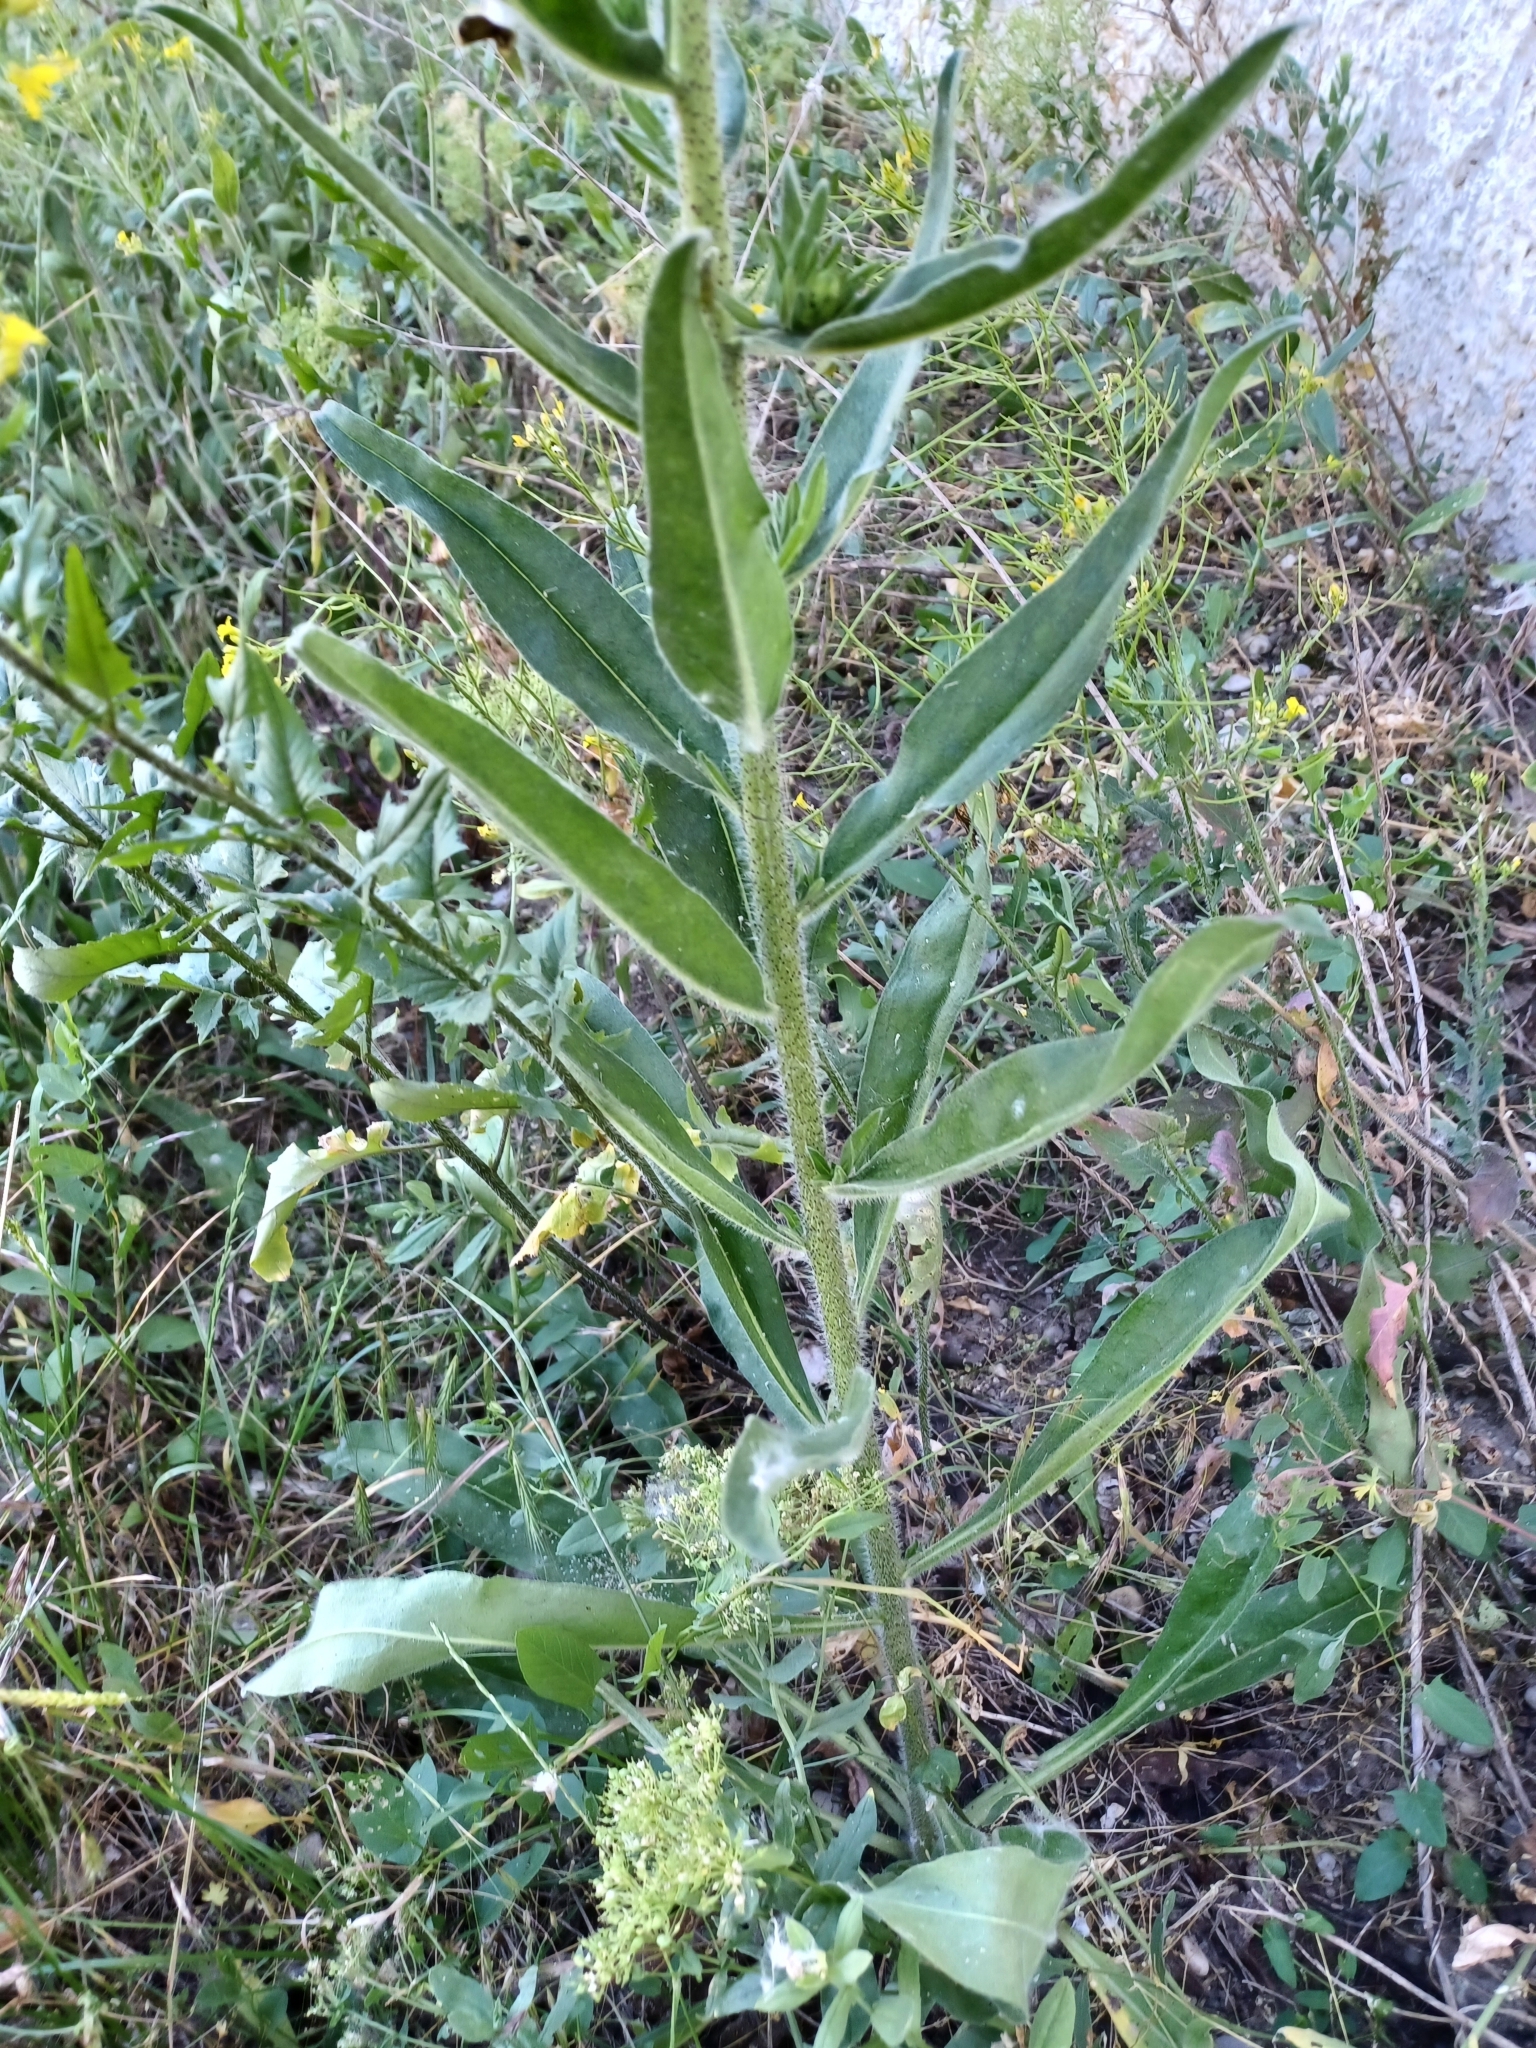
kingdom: Plantae
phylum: Tracheophyta
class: Magnoliopsida
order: Boraginales
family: Boraginaceae
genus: Echium
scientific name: Echium vulgare
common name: Common viper's bugloss
